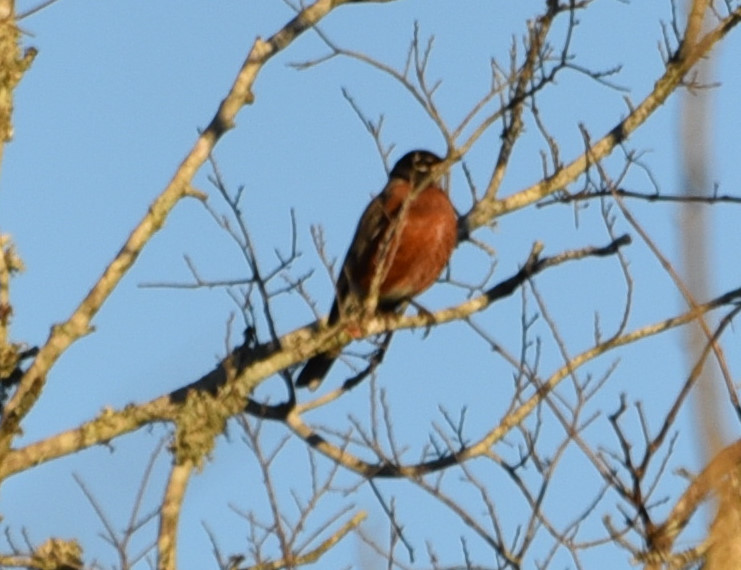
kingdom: Animalia
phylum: Chordata
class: Aves
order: Passeriformes
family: Turdidae
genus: Turdus
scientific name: Turdus migratorius
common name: American robin
